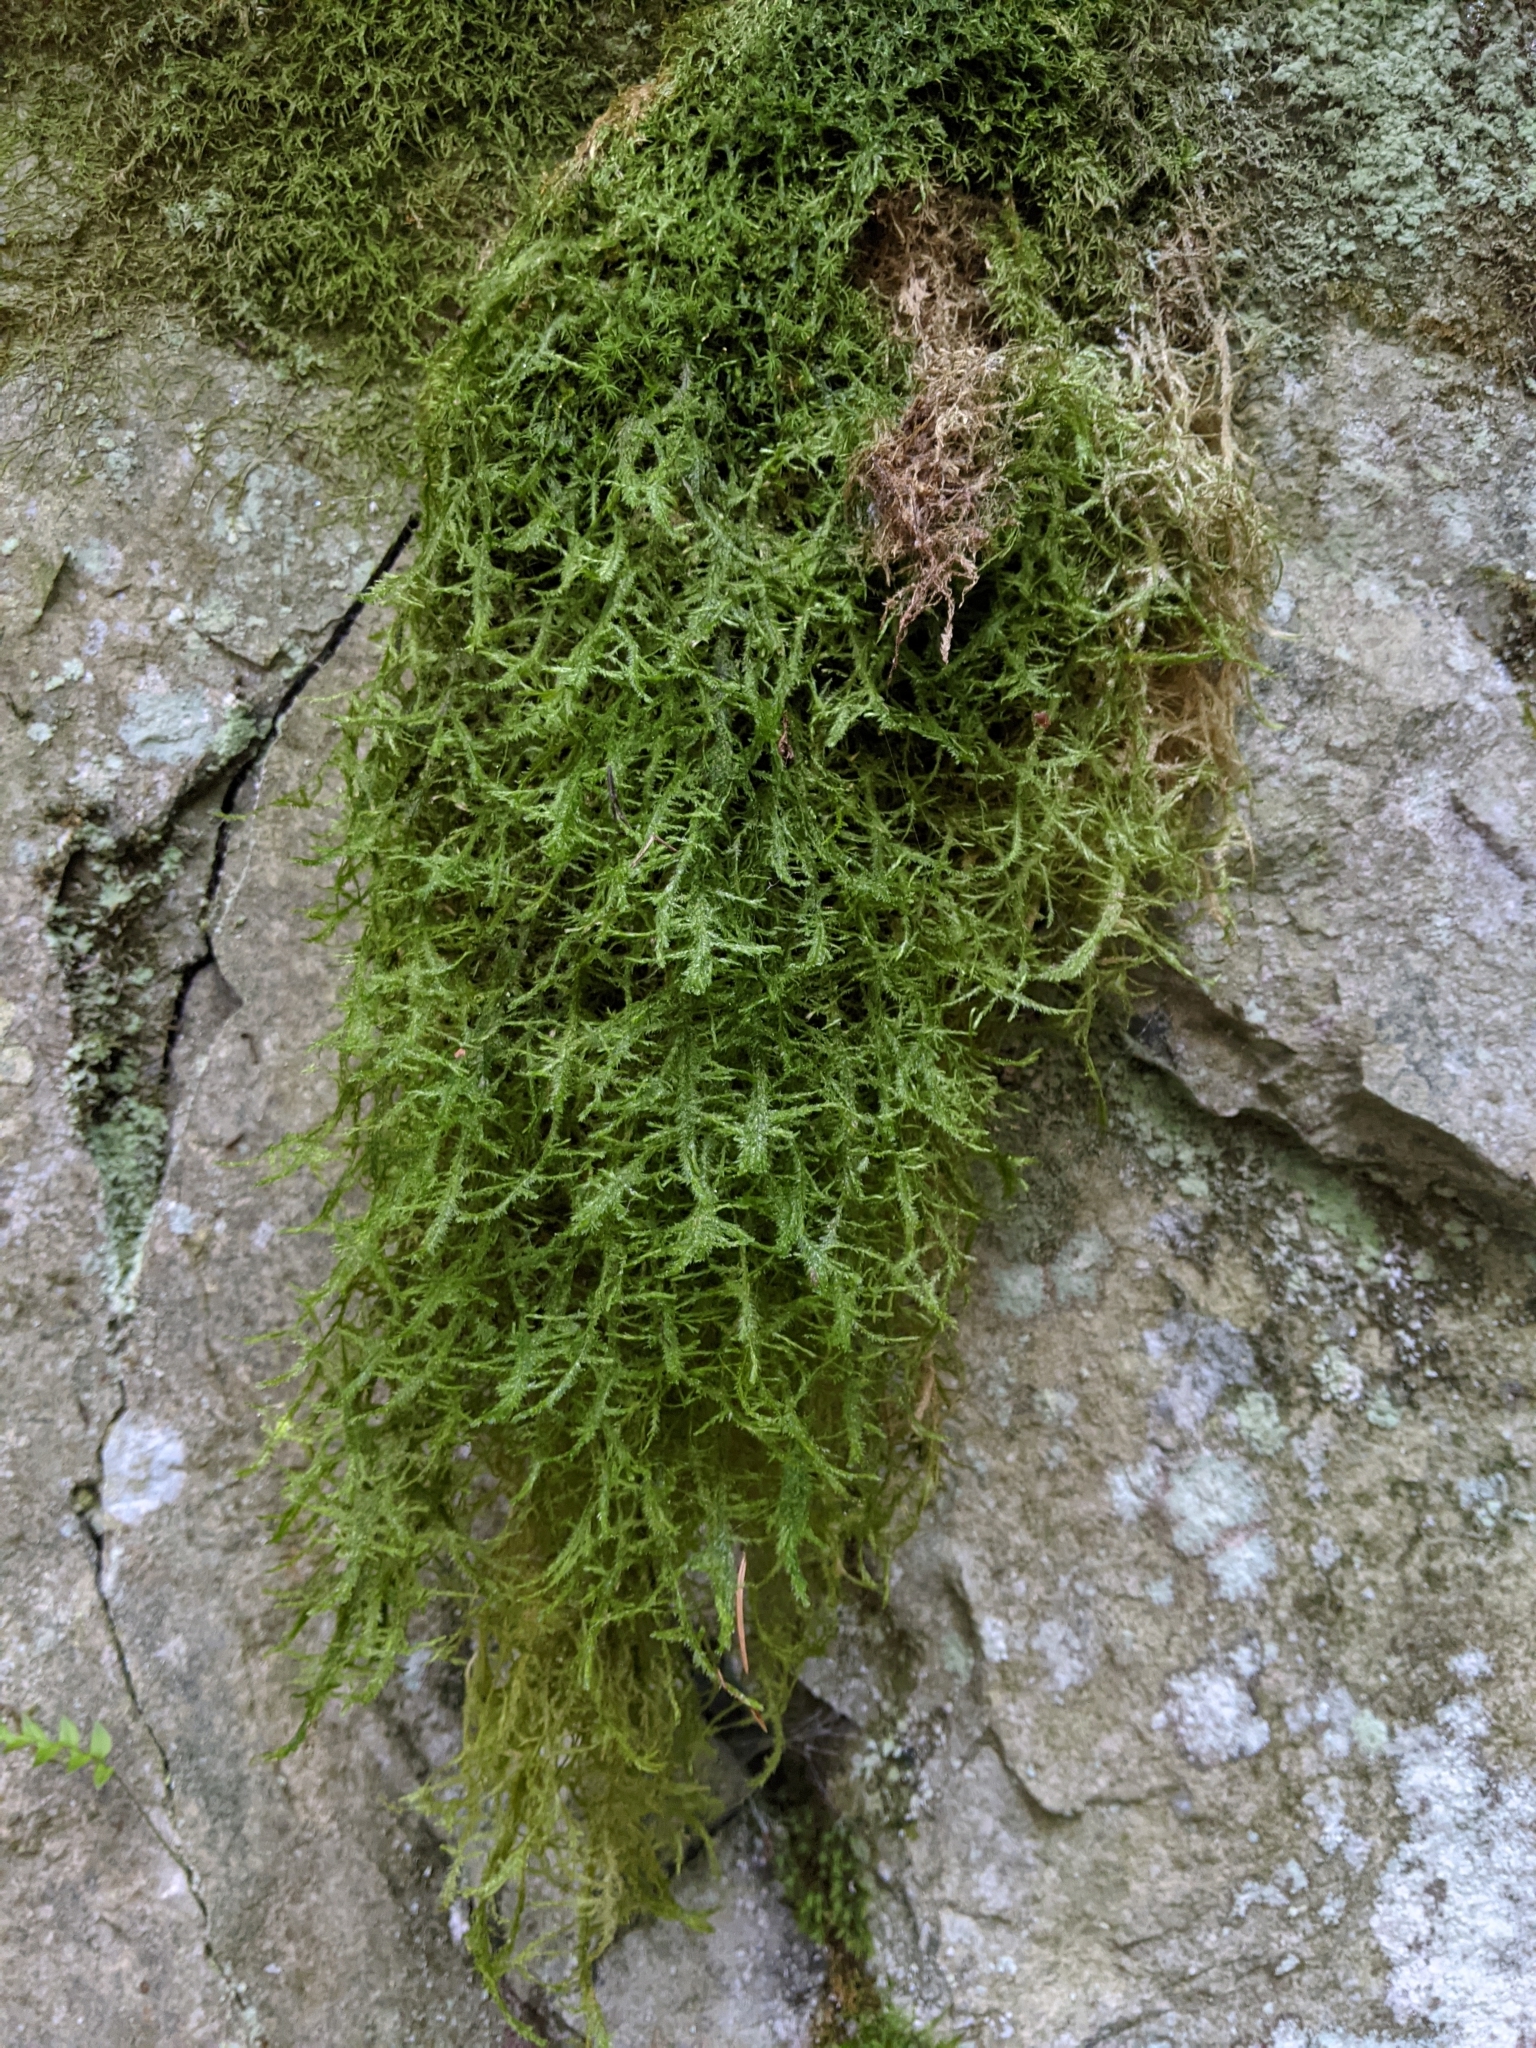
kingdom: Plantae
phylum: Bryophyta
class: Bryopsida
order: Hypnales
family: Neckeraceae
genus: Neckera
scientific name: Neckera douglasii
